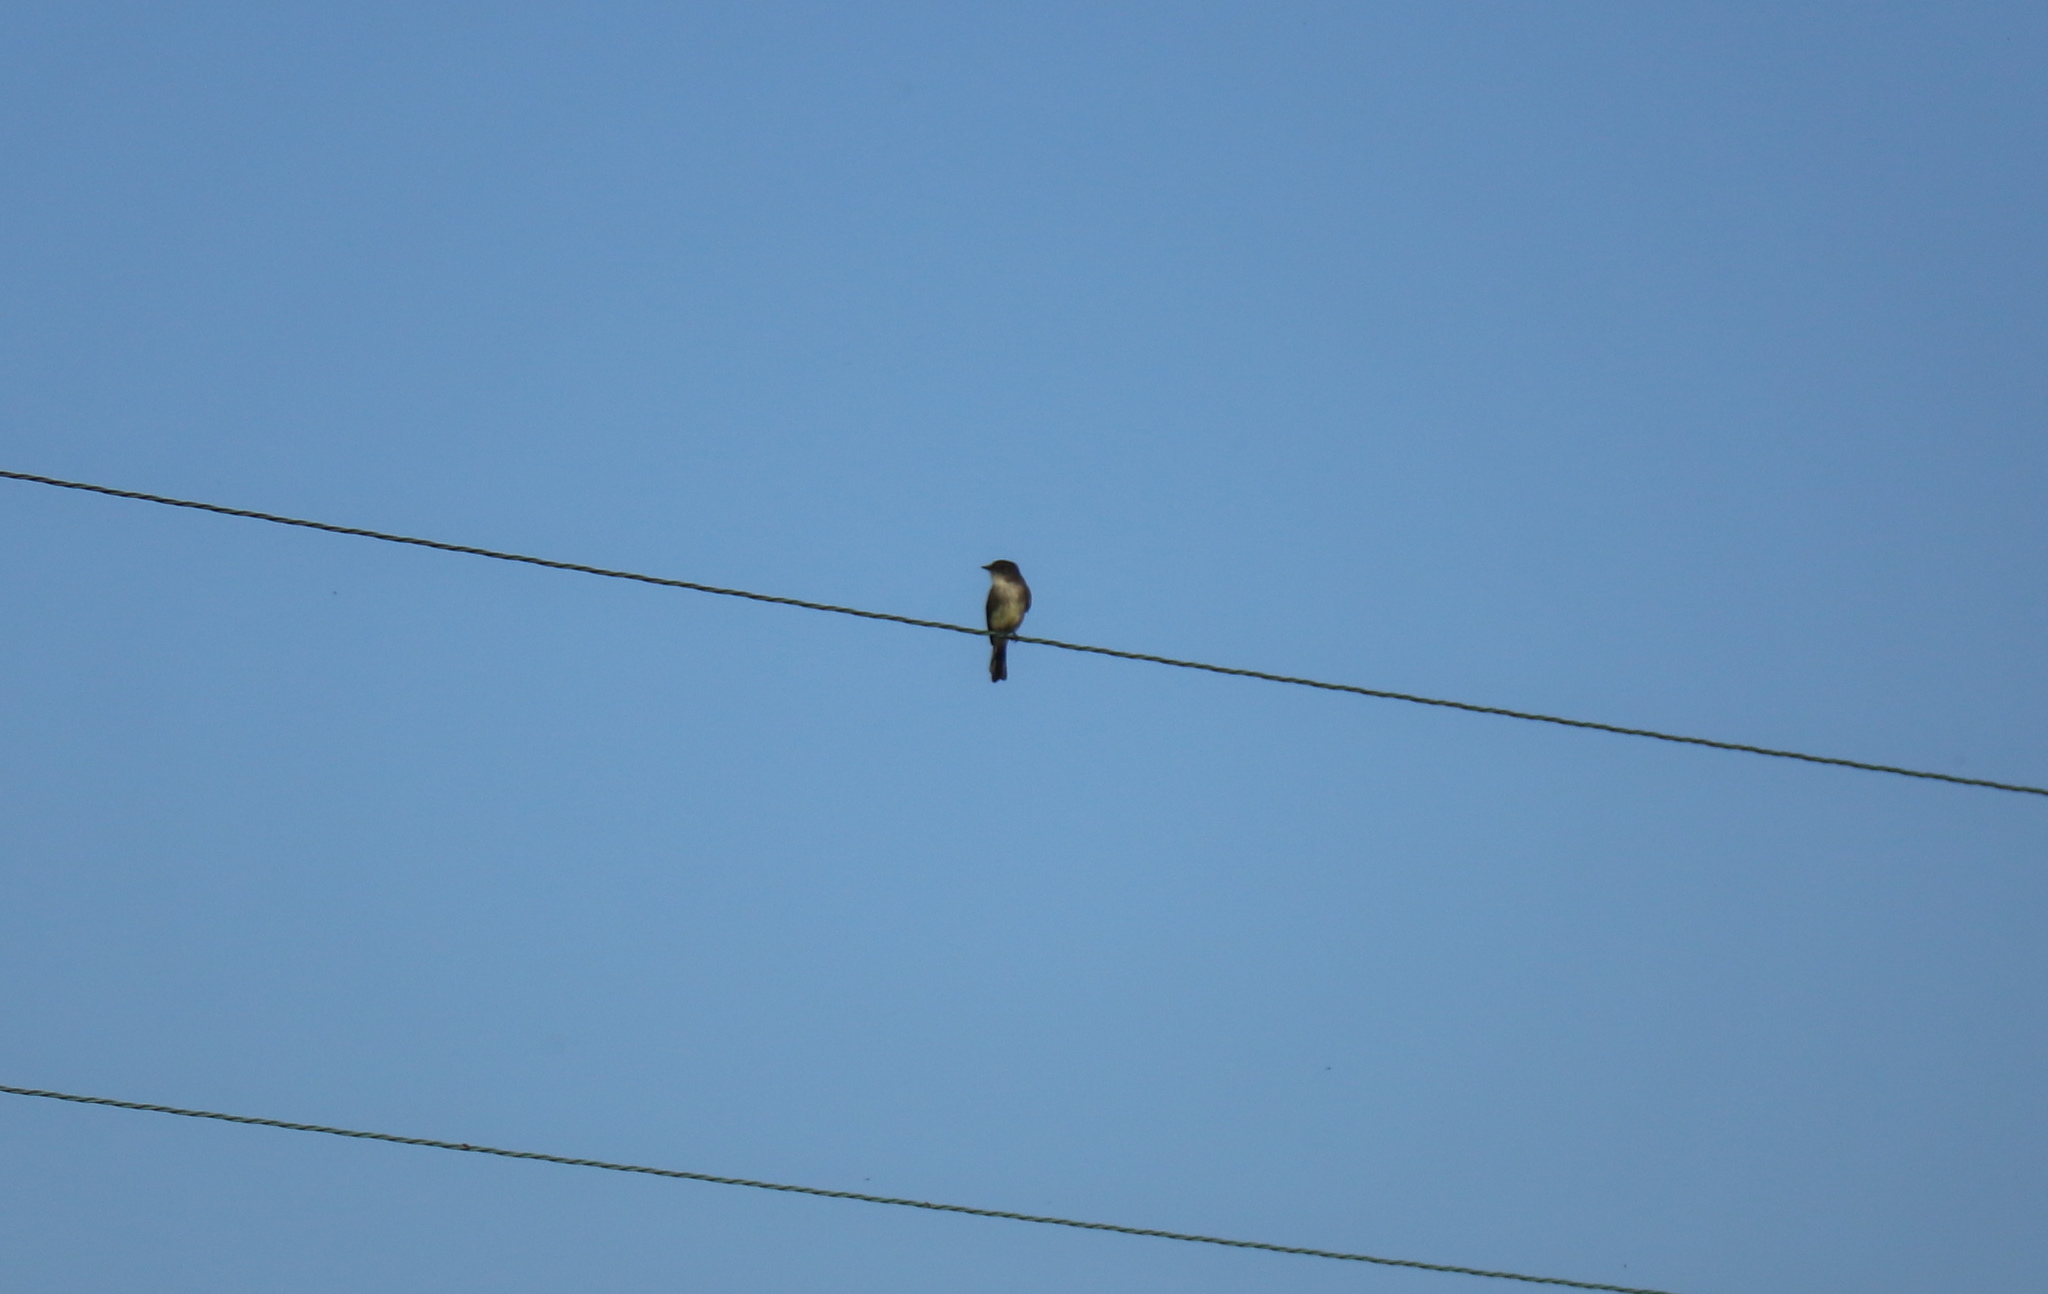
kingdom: Animalia
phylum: Chordata
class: Aves
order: Passeriformes
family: Tyrannidae
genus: Sayornis
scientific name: Sayornis phoebe
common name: Eastern phoebe
